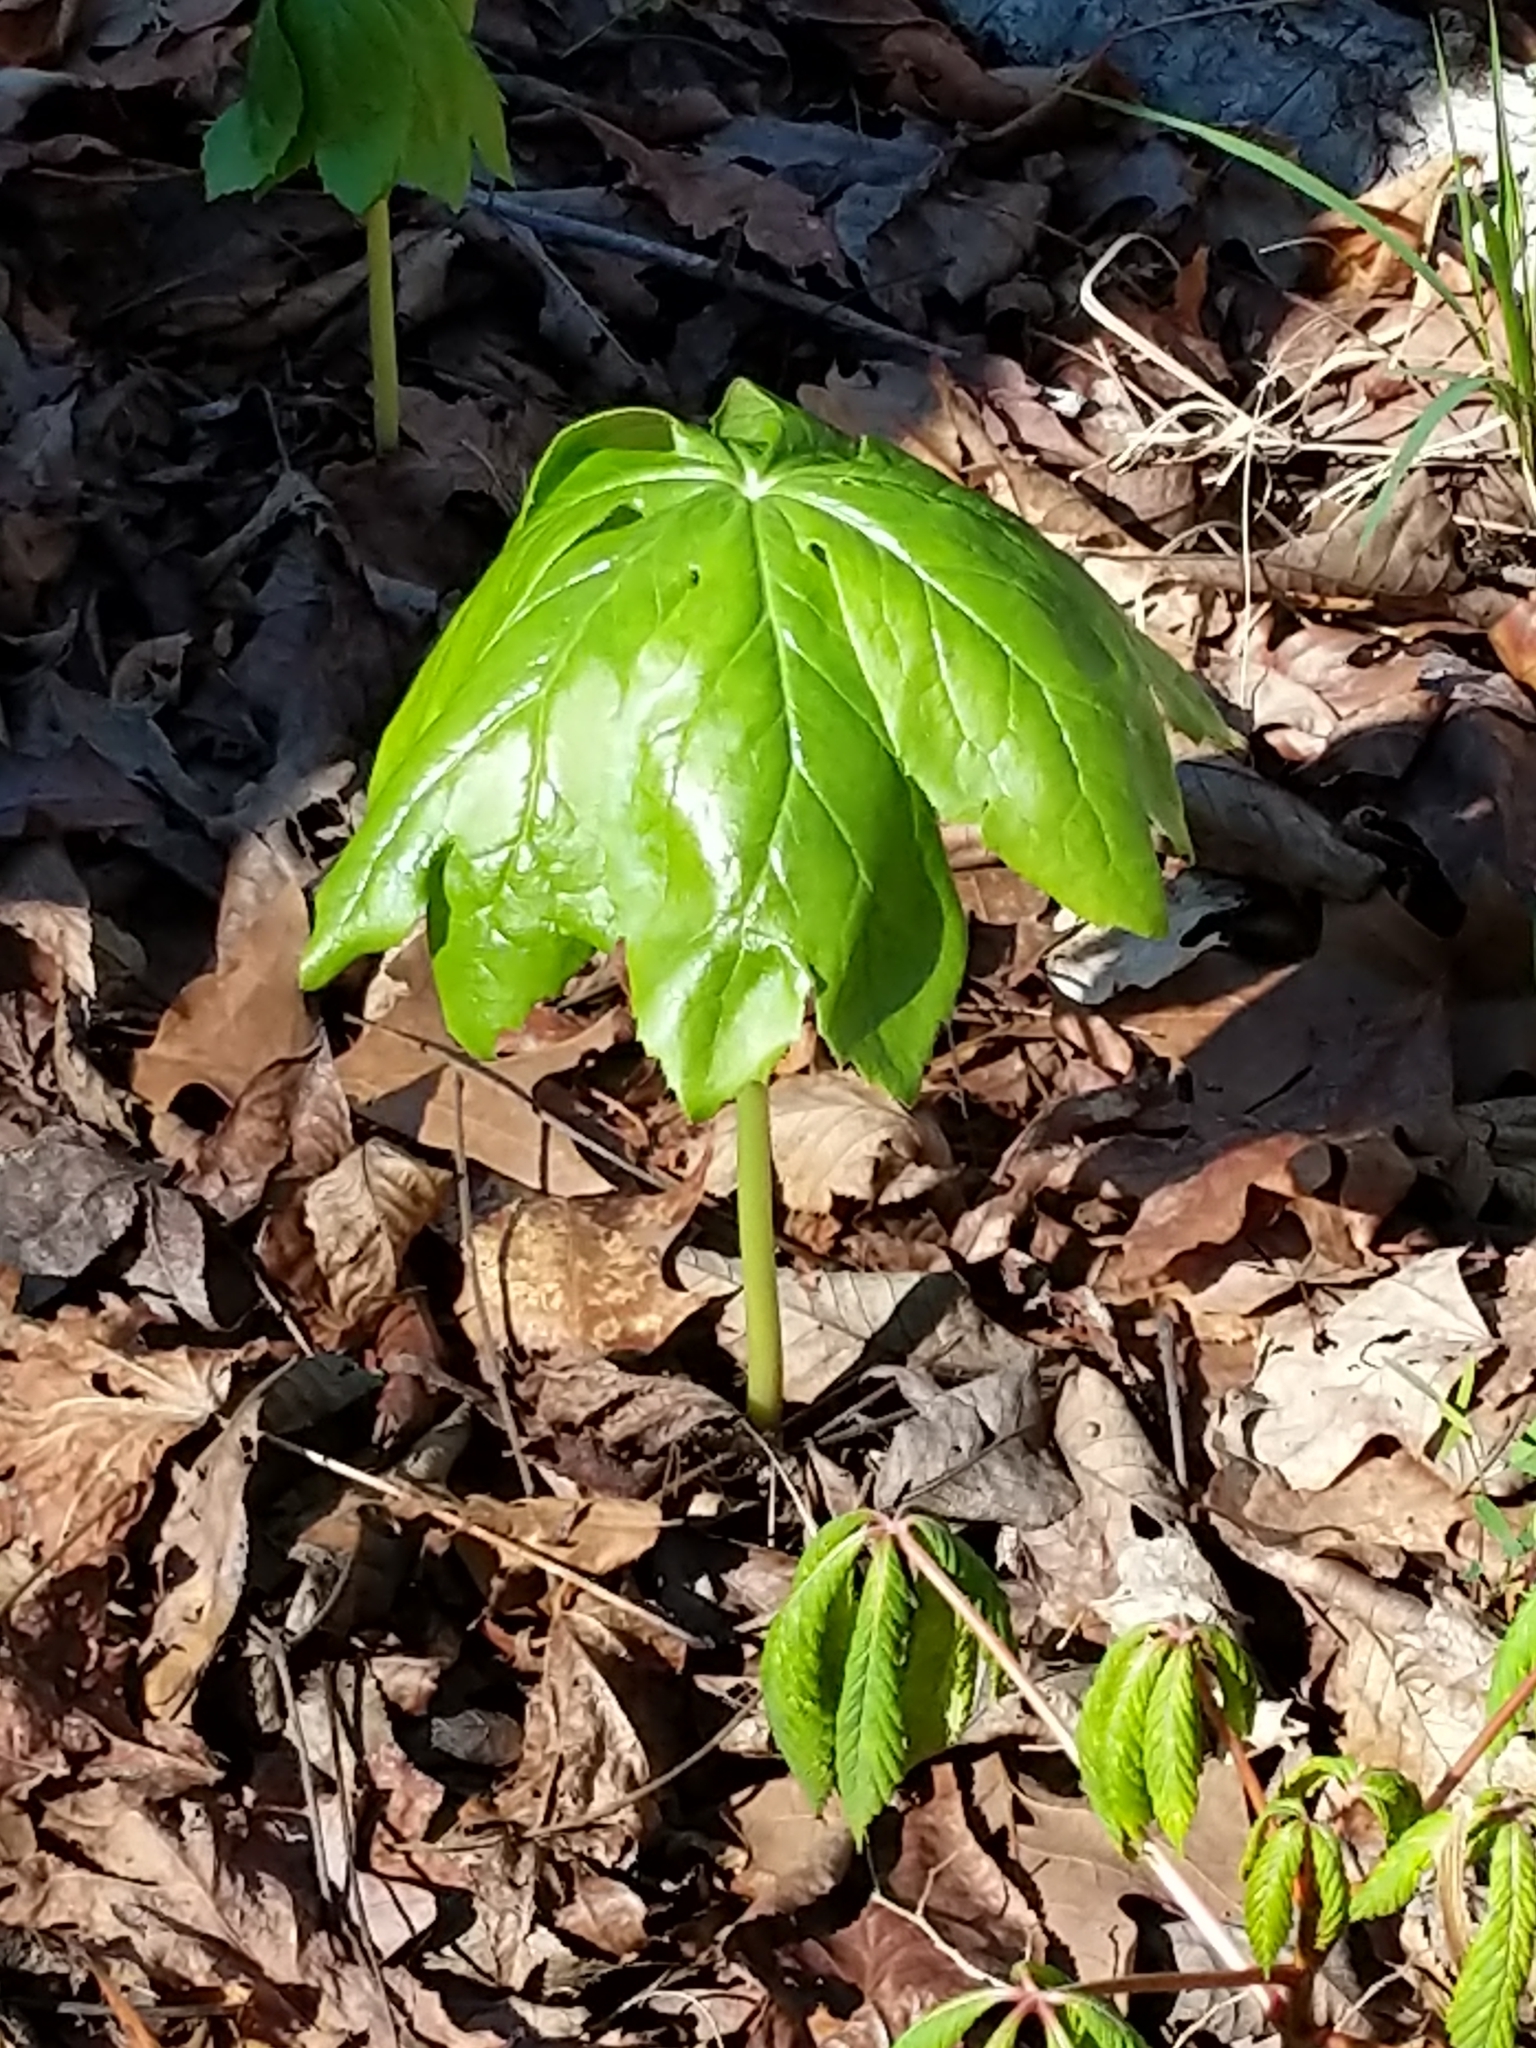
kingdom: Plantae
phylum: Tracheophyta
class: Magnoliopsida
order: Ranunculales
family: Berberidaceae
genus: Podophyllum
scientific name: Podophyllum peltatum
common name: Wild mandrake
